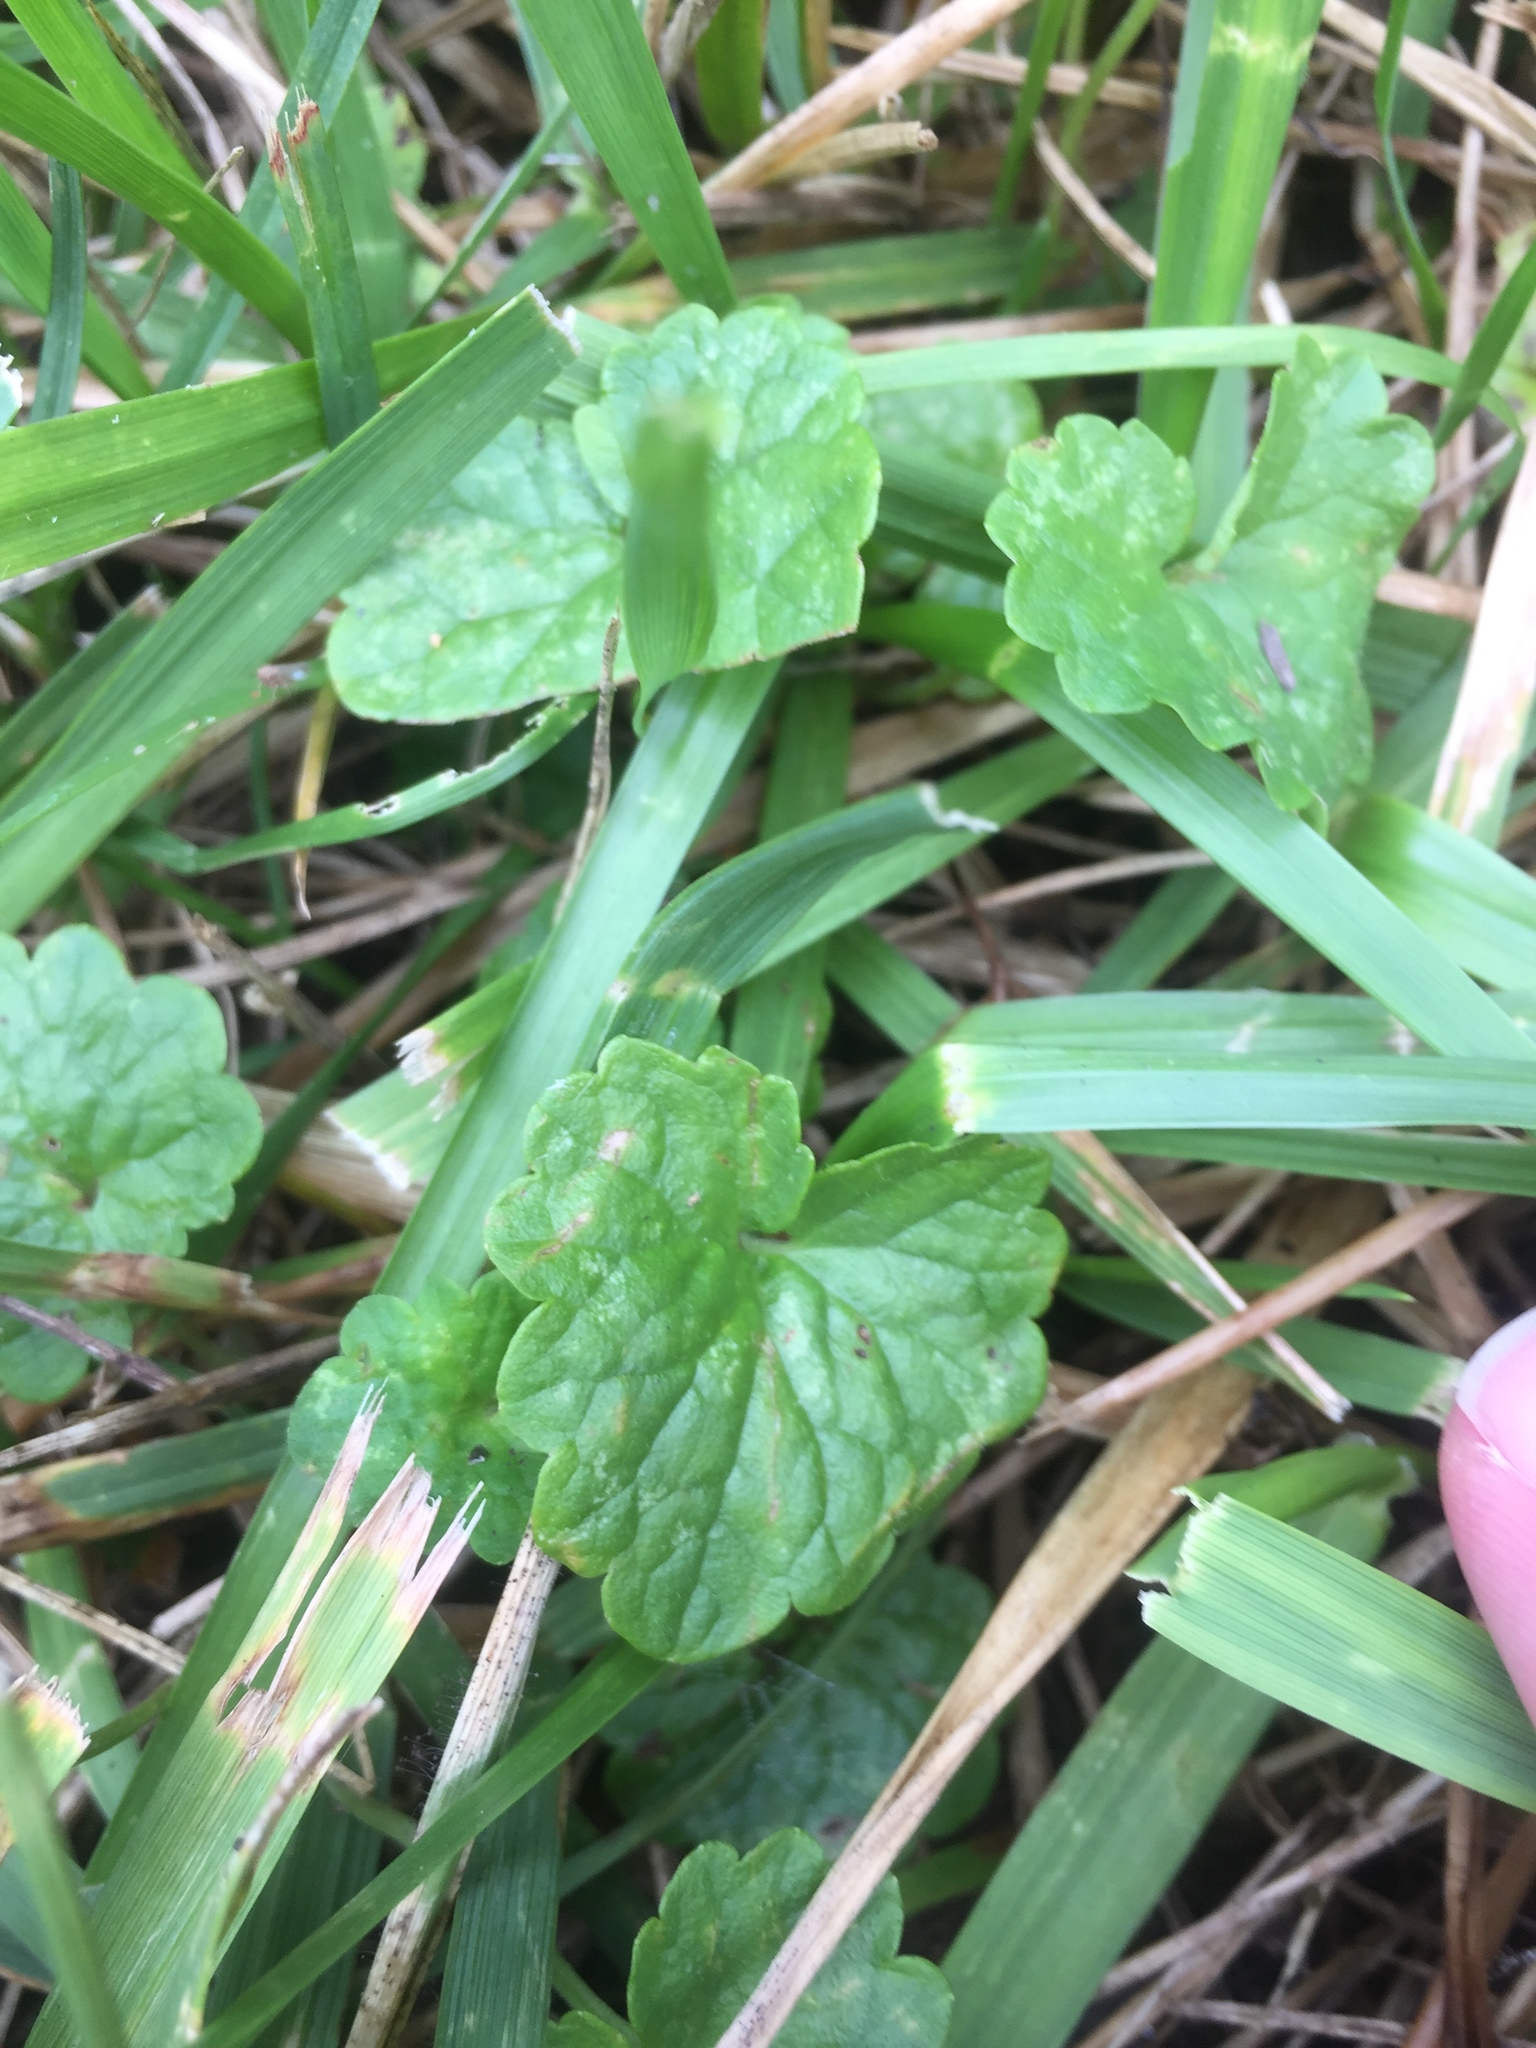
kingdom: Plantae
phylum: Tracheophyta
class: Magnoliopsida
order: Lamiales
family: Lamiaceae
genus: Glechoma
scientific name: Glechoma hederacea
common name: Ground ivy
